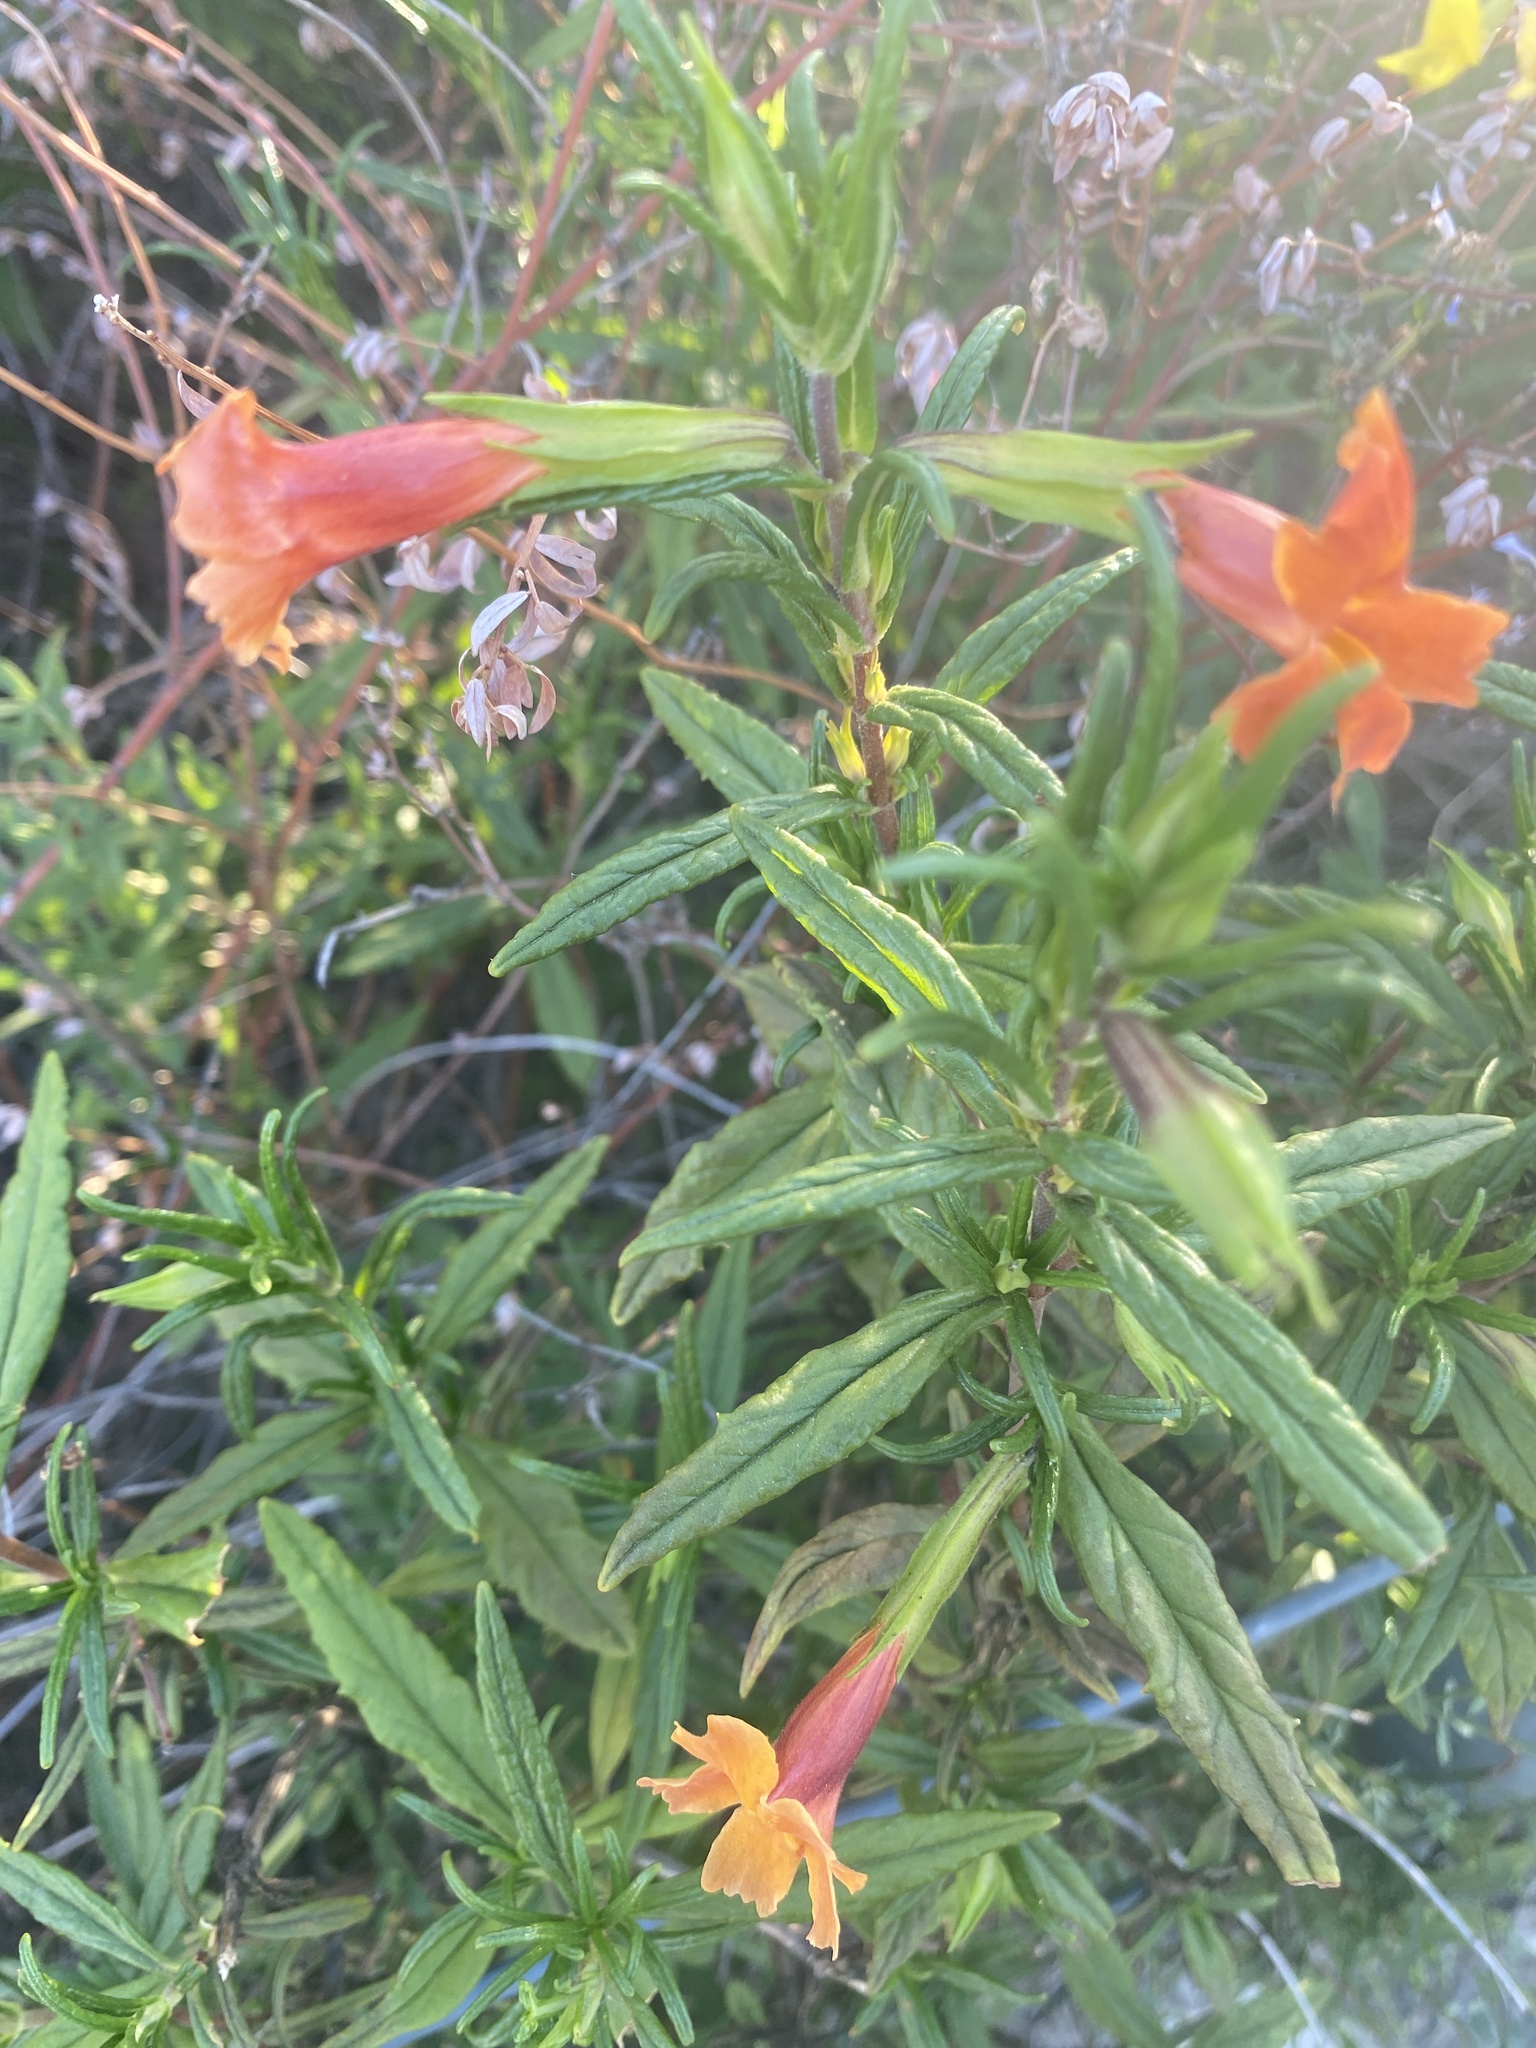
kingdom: Plantae
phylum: Tracheophyta
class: Magnoliopsida
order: Lamiales
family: Phrymaceae
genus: Diplacus
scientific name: Diplacus australis
